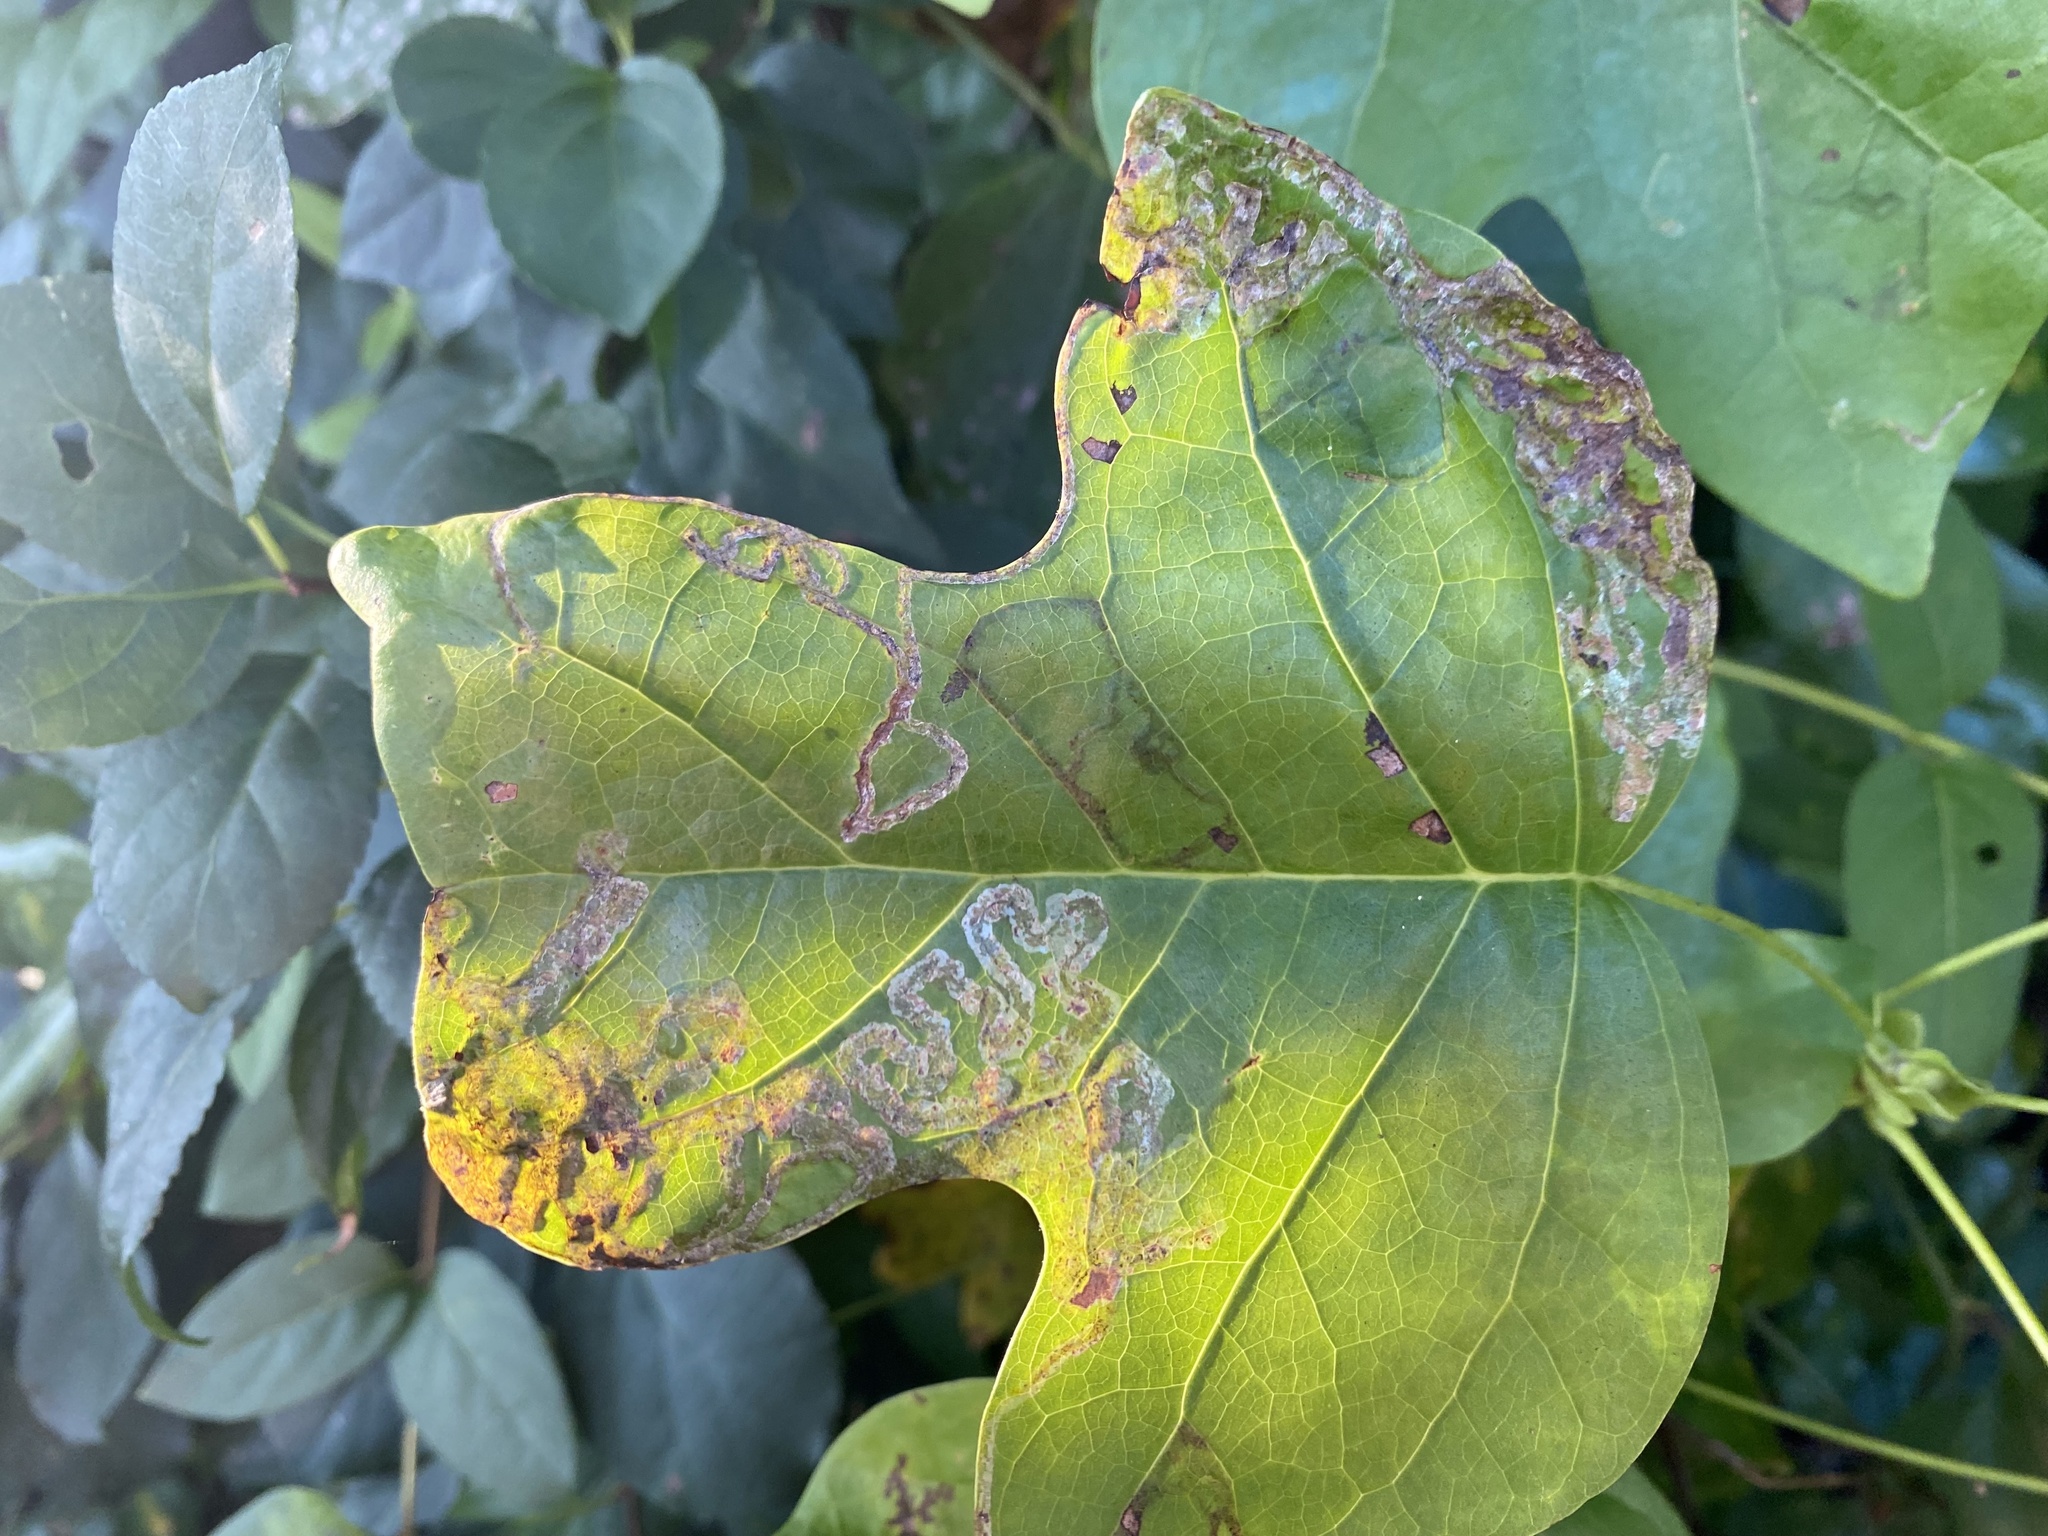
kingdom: Animalia
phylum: Arthropoda
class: Insecta
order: Lepidoptera
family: Gracillariidae
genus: Phyllocnistis
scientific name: Phyllocnistis liriodendronella
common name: Tulip tree leaf miner
